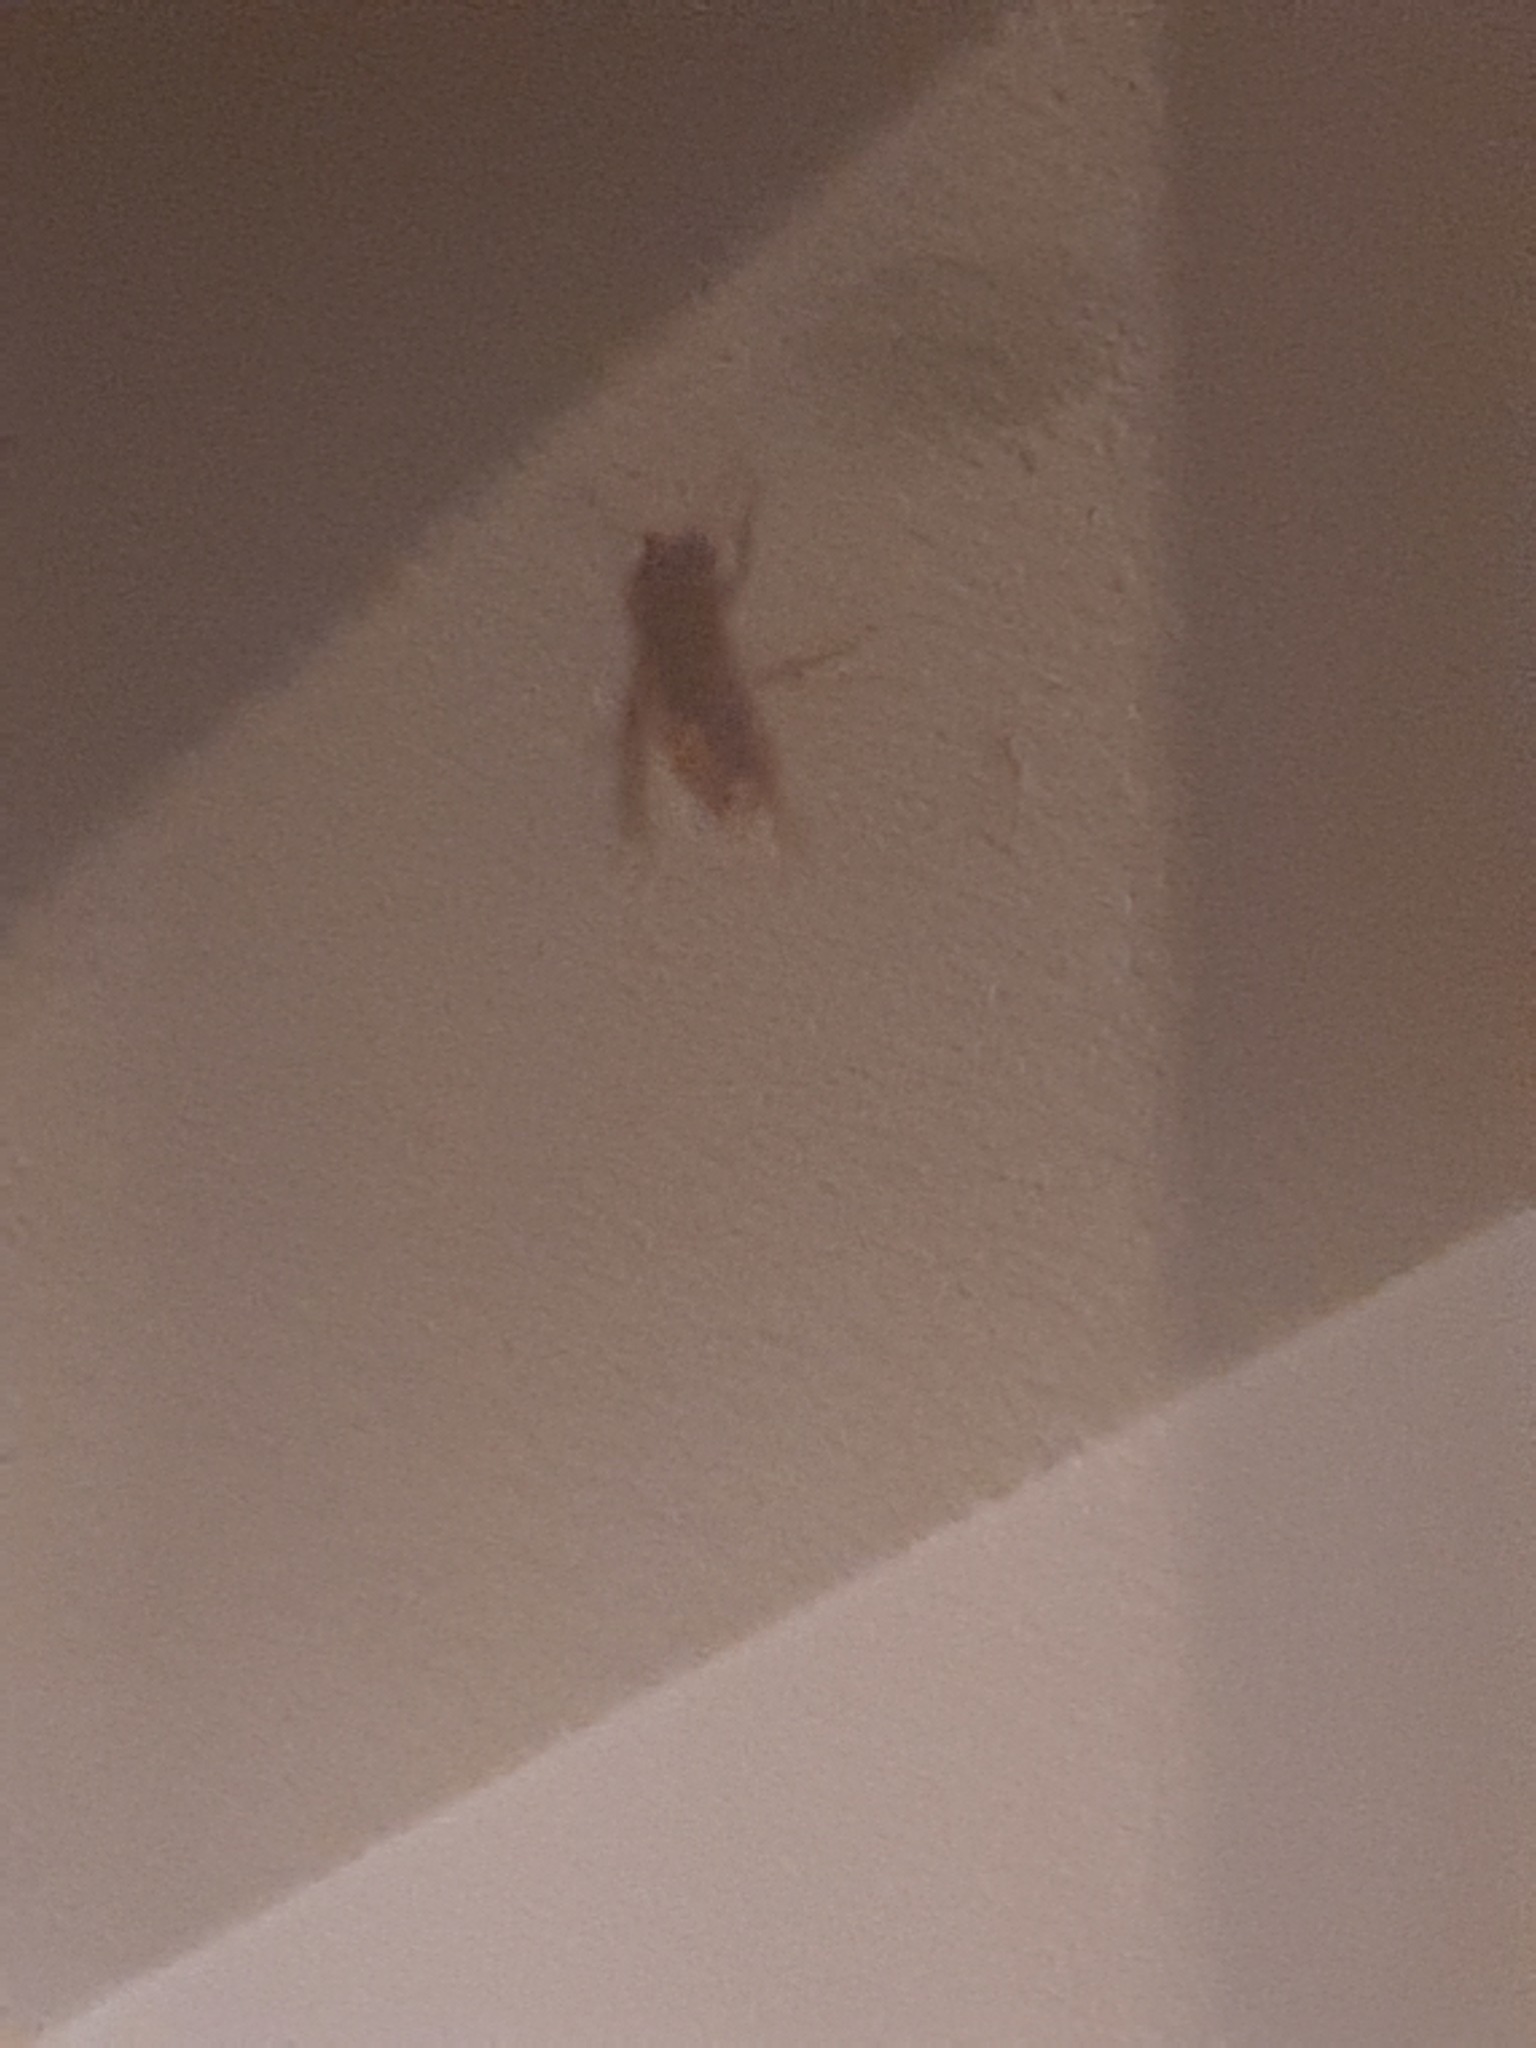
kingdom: Animalia
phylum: Arthropoda
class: Insecta
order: Hymenoptera
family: Vespidae
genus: Vespa
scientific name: Vespa velutina
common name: Asian hornet
